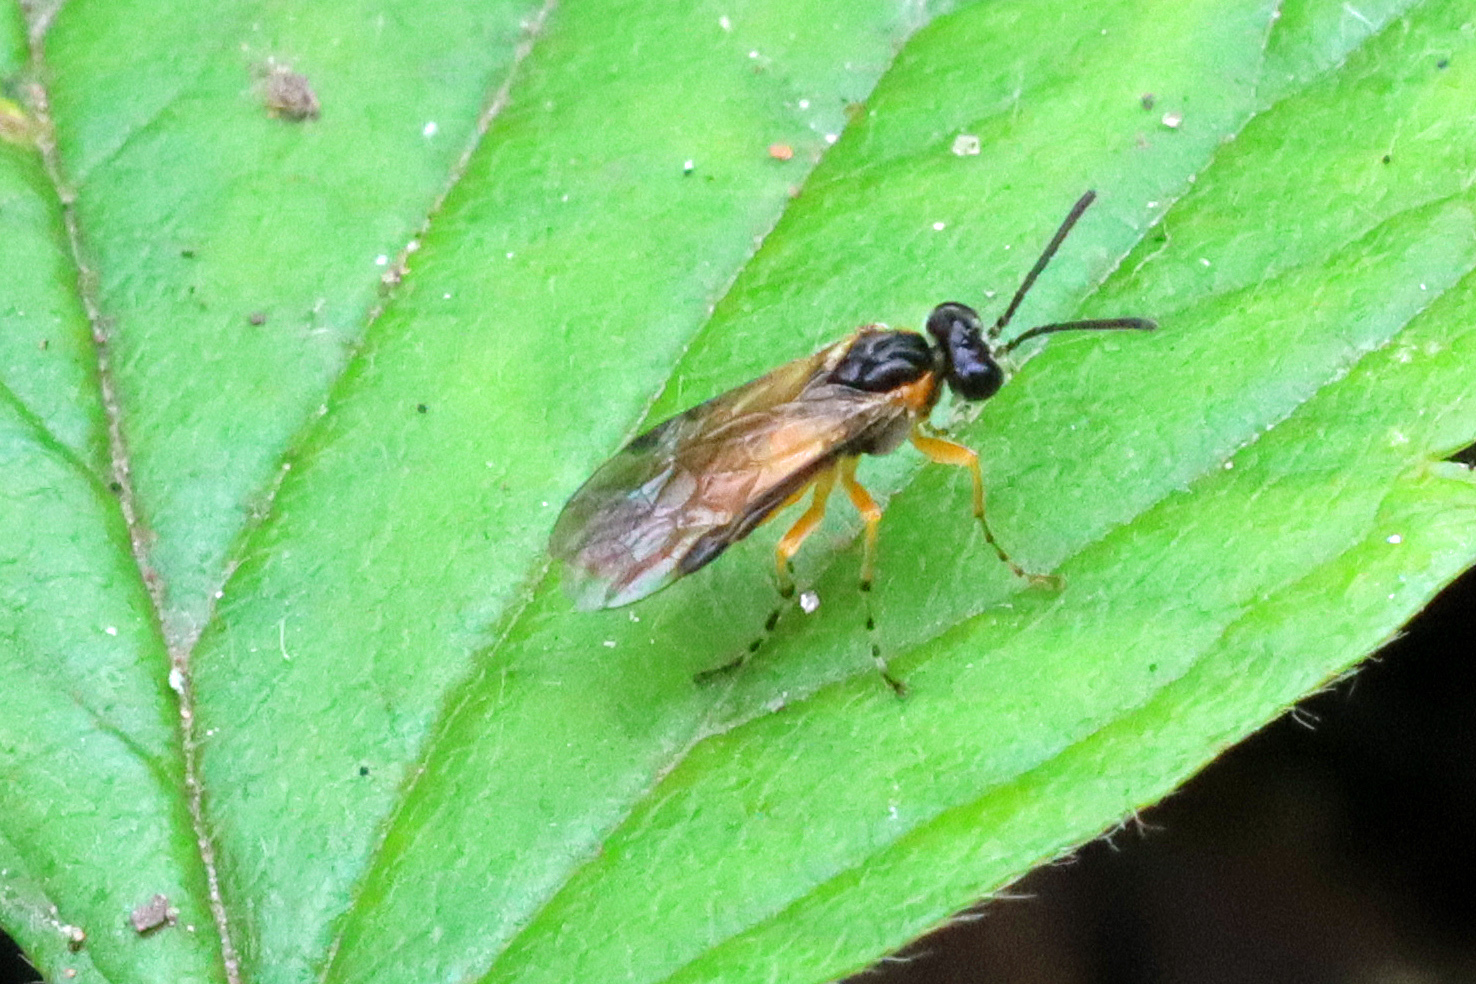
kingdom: Animalia
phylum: Arthropoda
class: Insecta
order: Hymenoptera
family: Tenthredinidae
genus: Athalia
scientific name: Athalia cordata
